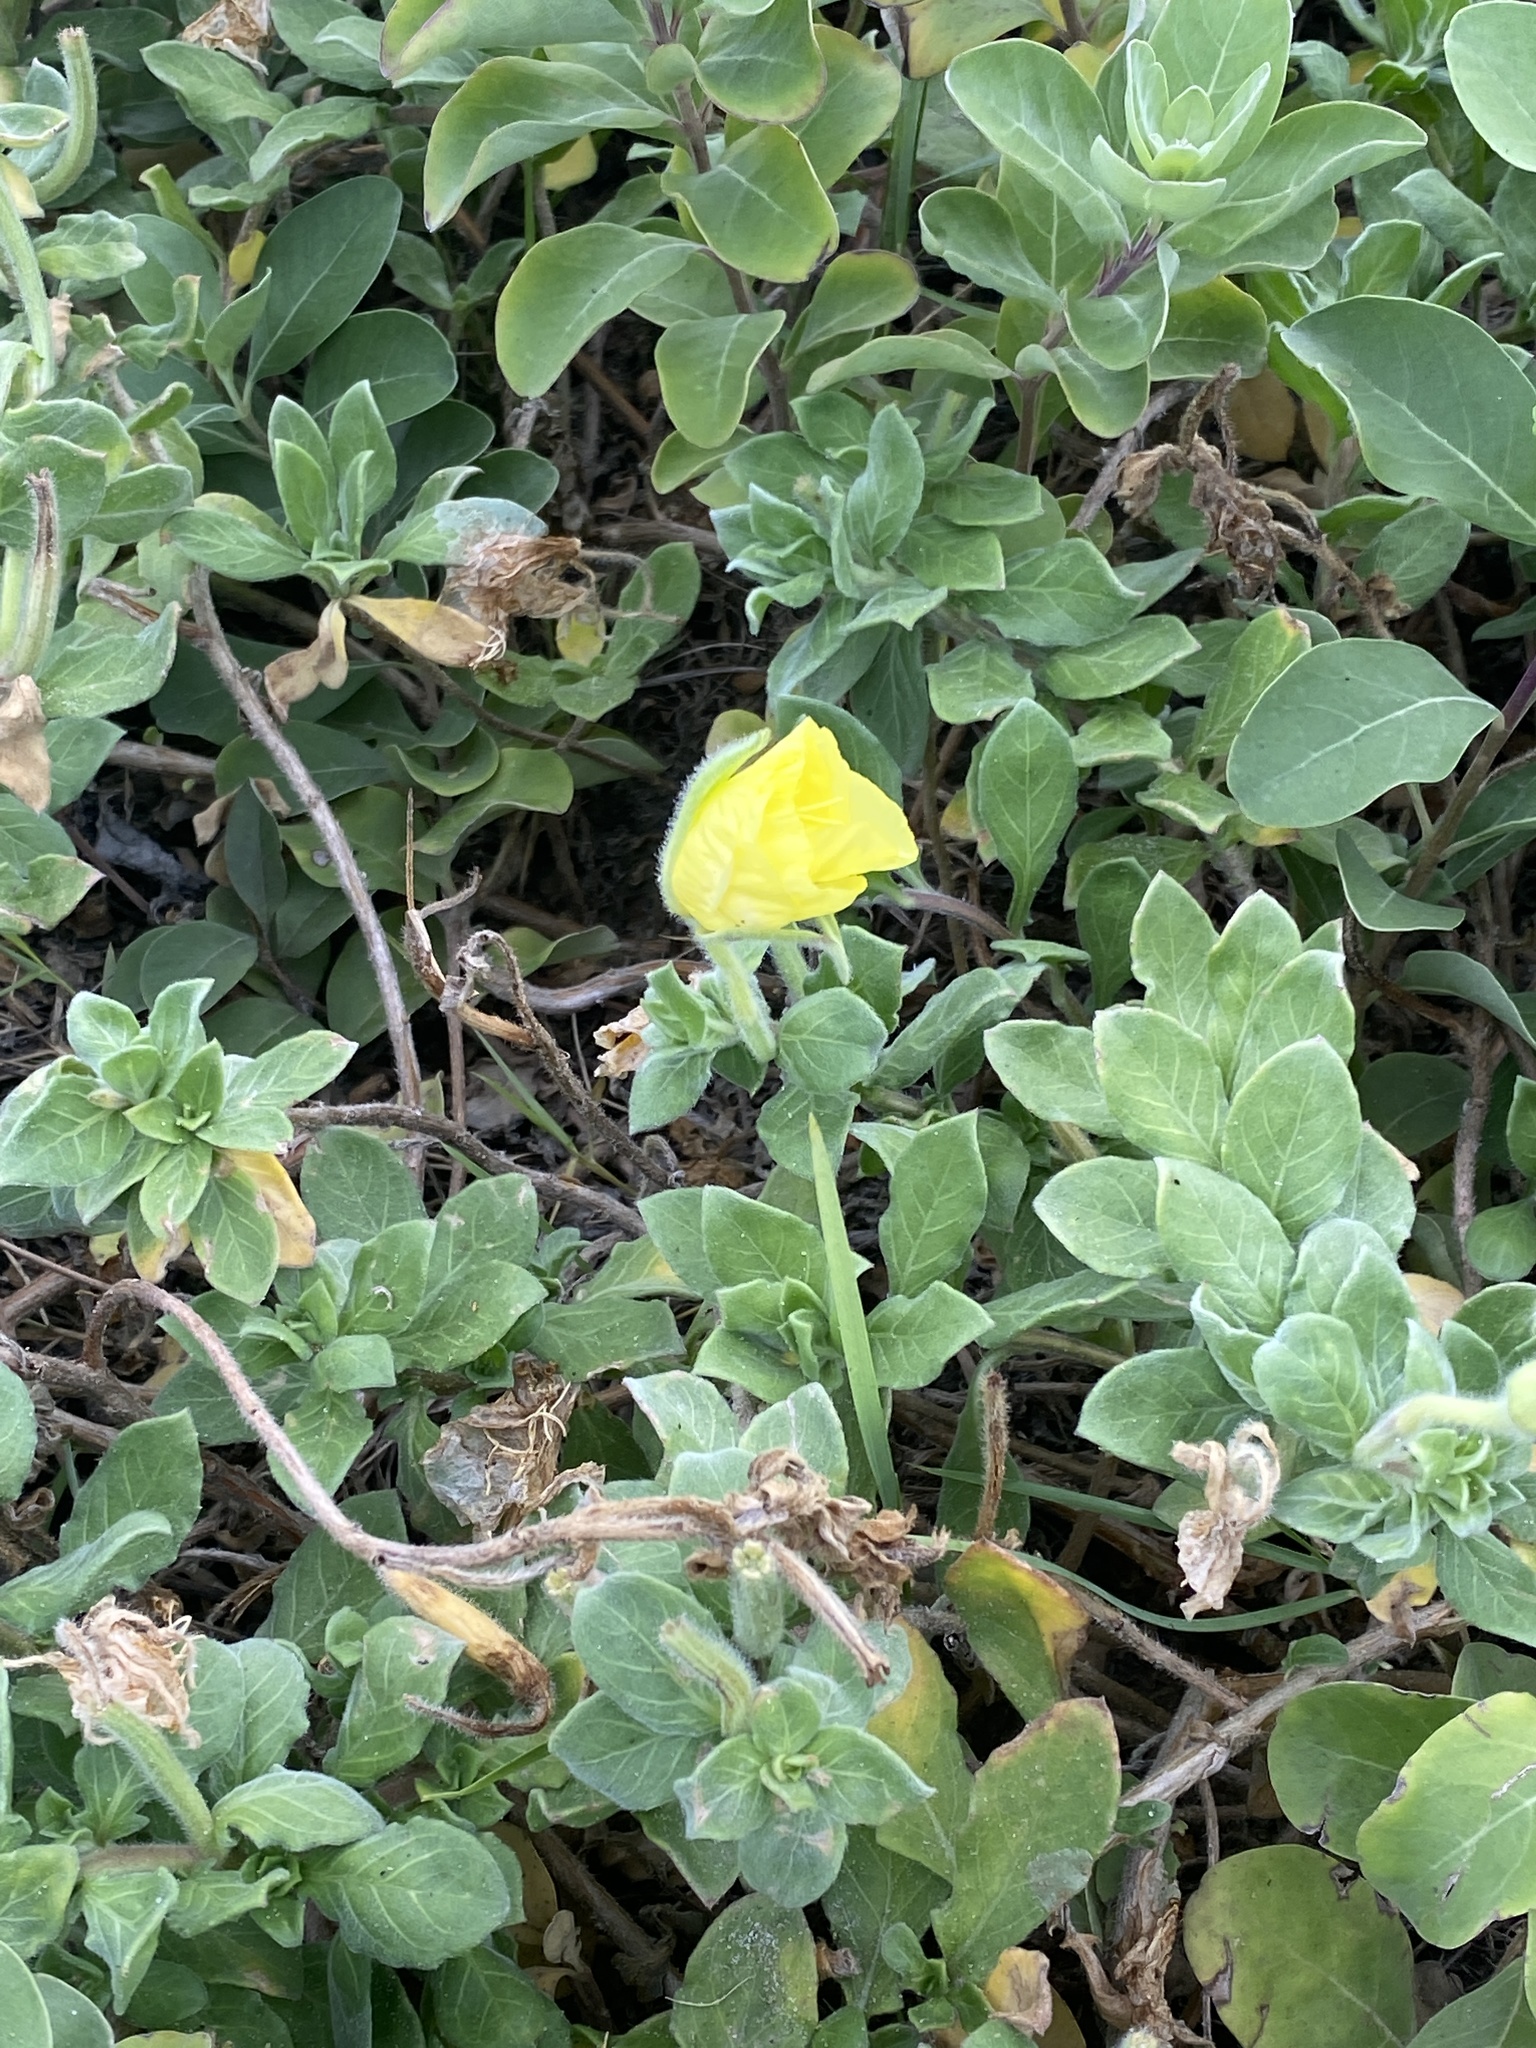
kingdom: Plantae
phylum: Tracheophyta
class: Magnoliopsida
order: Myrtales
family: Onagraceae
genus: Oenothera
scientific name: Oenothera drummondii
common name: Beach evening-primrose
